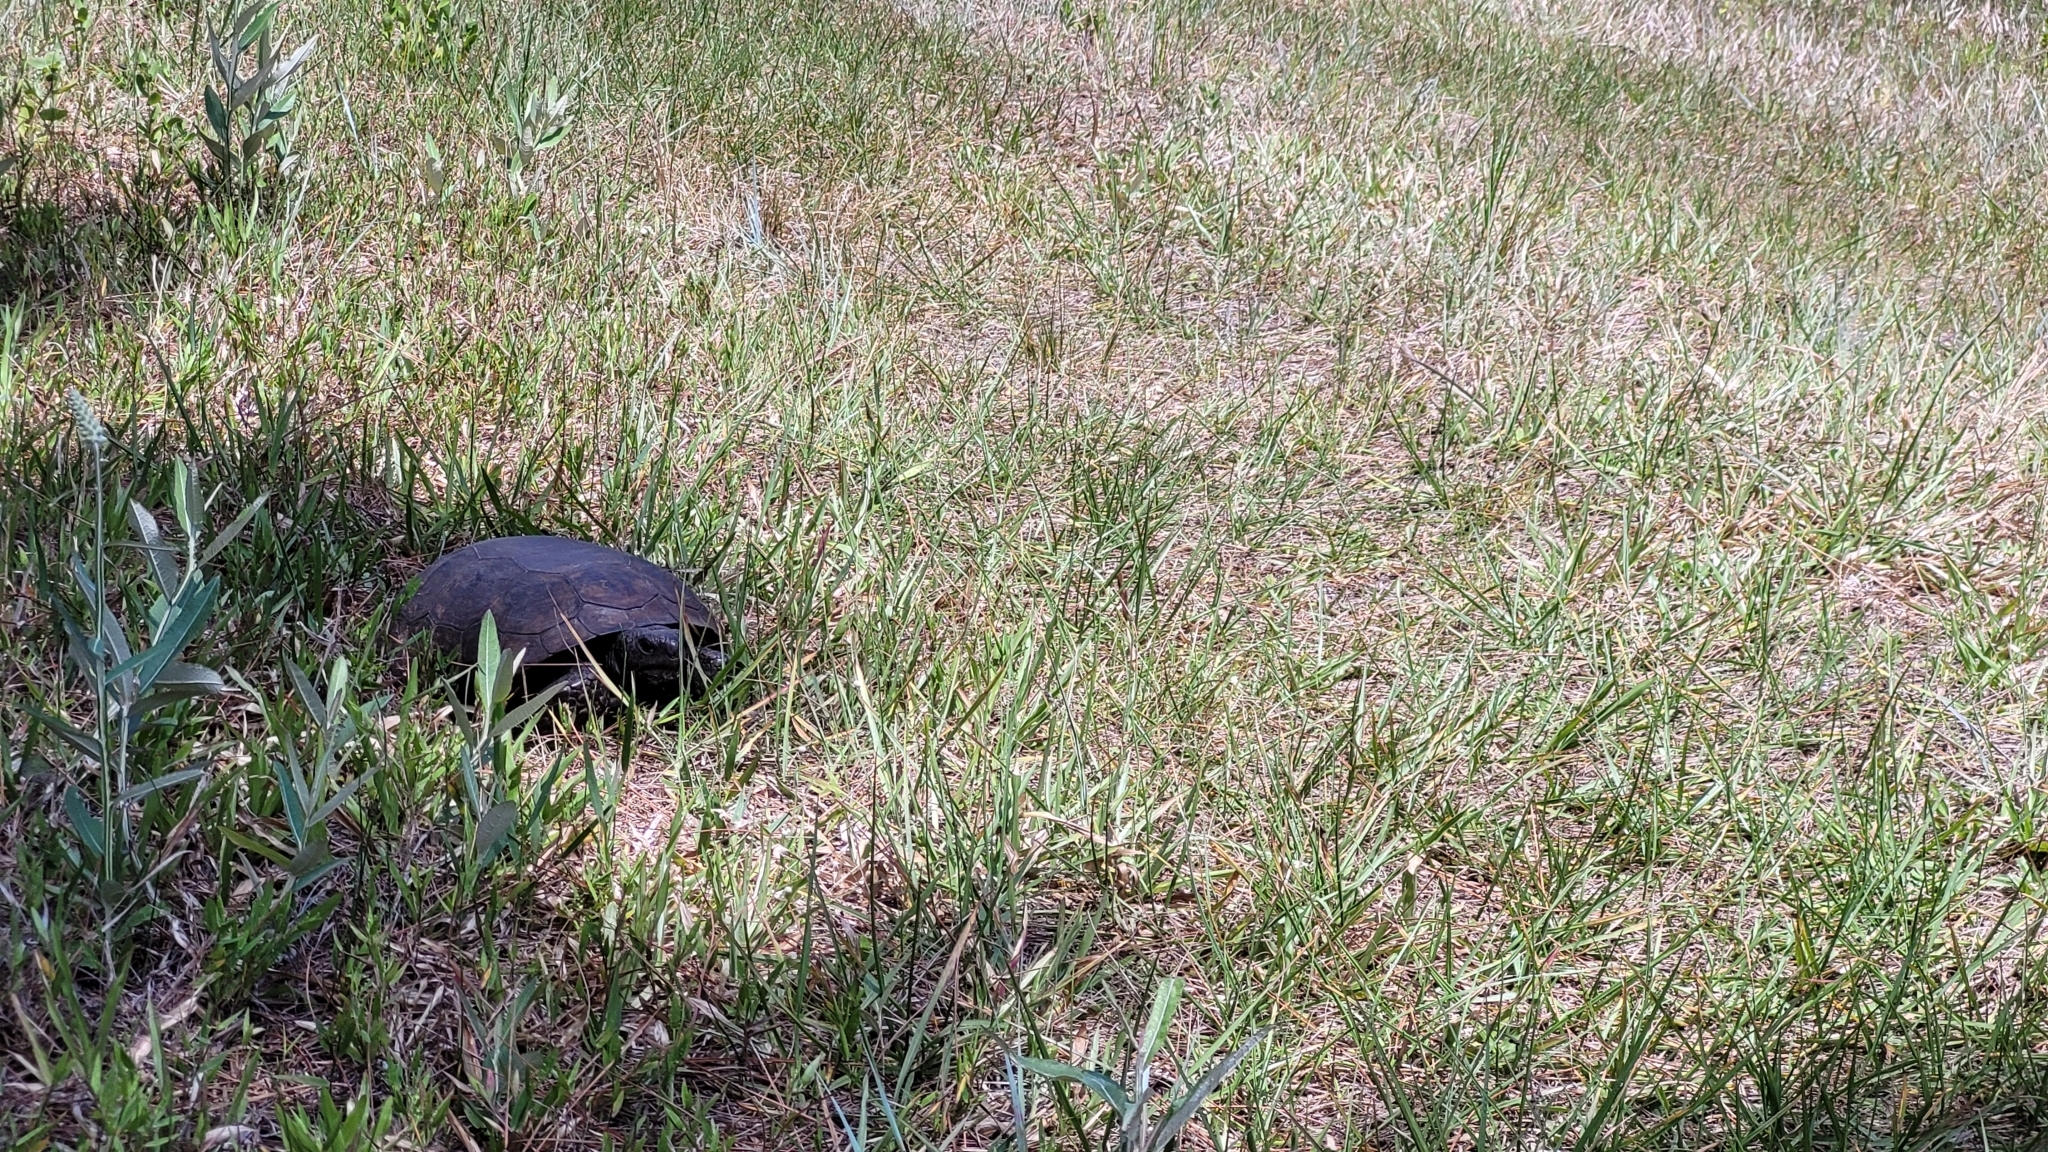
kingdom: Animalia
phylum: Chordata
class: Testudines
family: Testudinidae
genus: Gopherus
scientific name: Gopherus polyphemus
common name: Florida gopher tortoise
